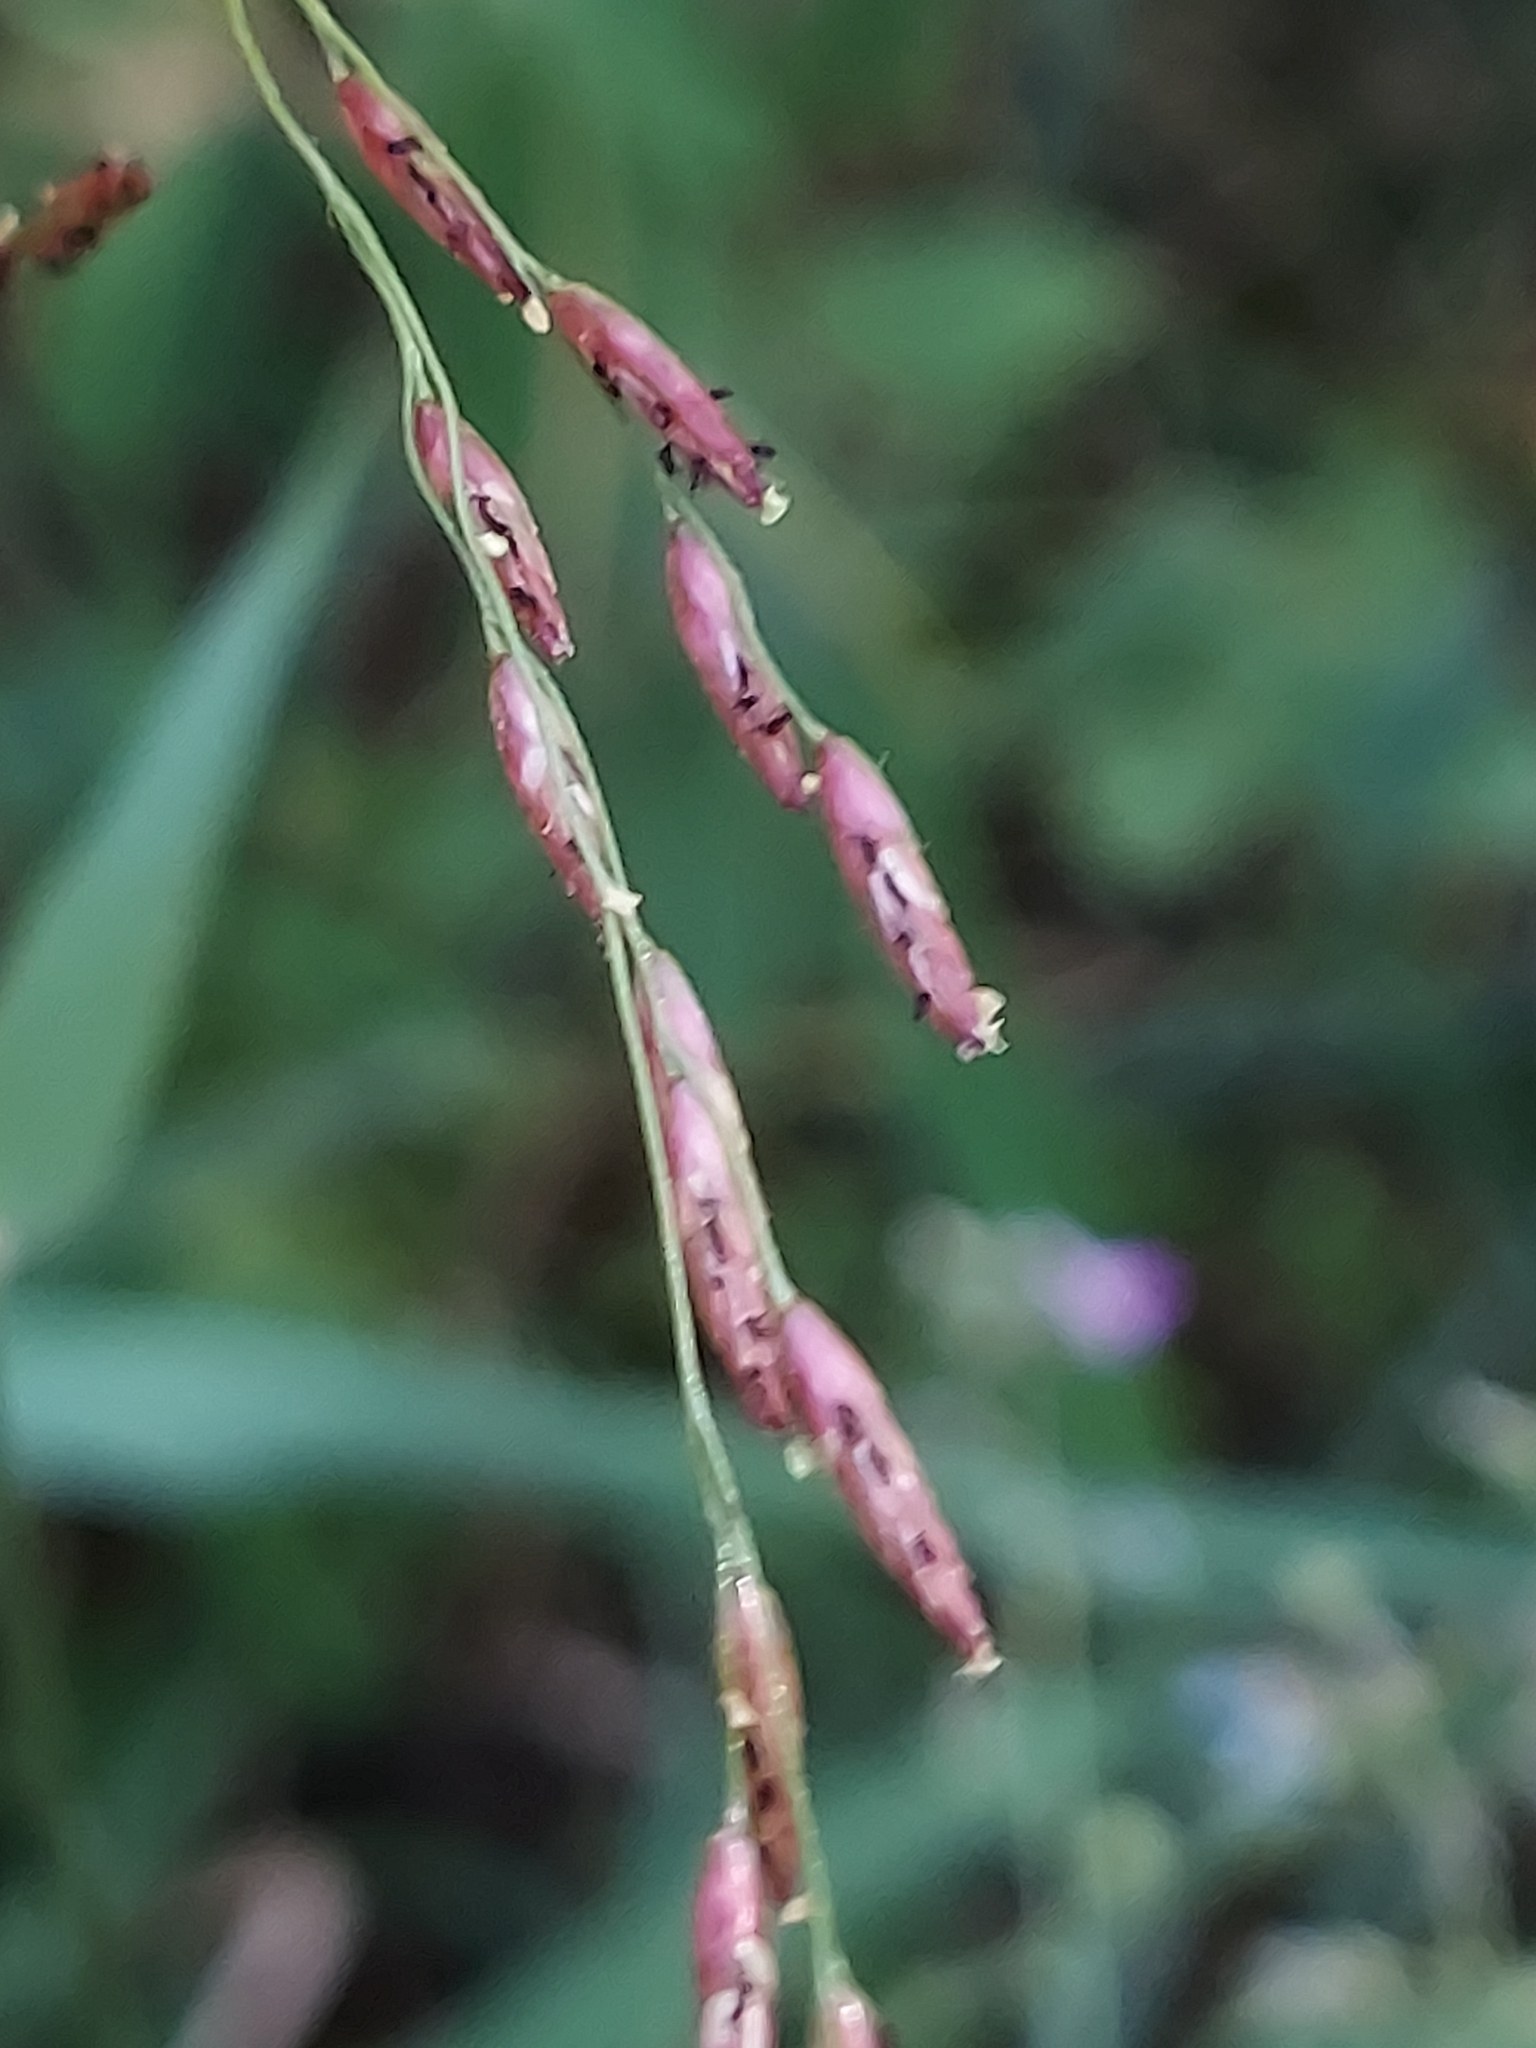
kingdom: Plantae
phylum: Tracheophyta
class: Liliopsida
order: Poales
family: Poaceae
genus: Tridens
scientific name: Tridens flavus
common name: Purpletop
